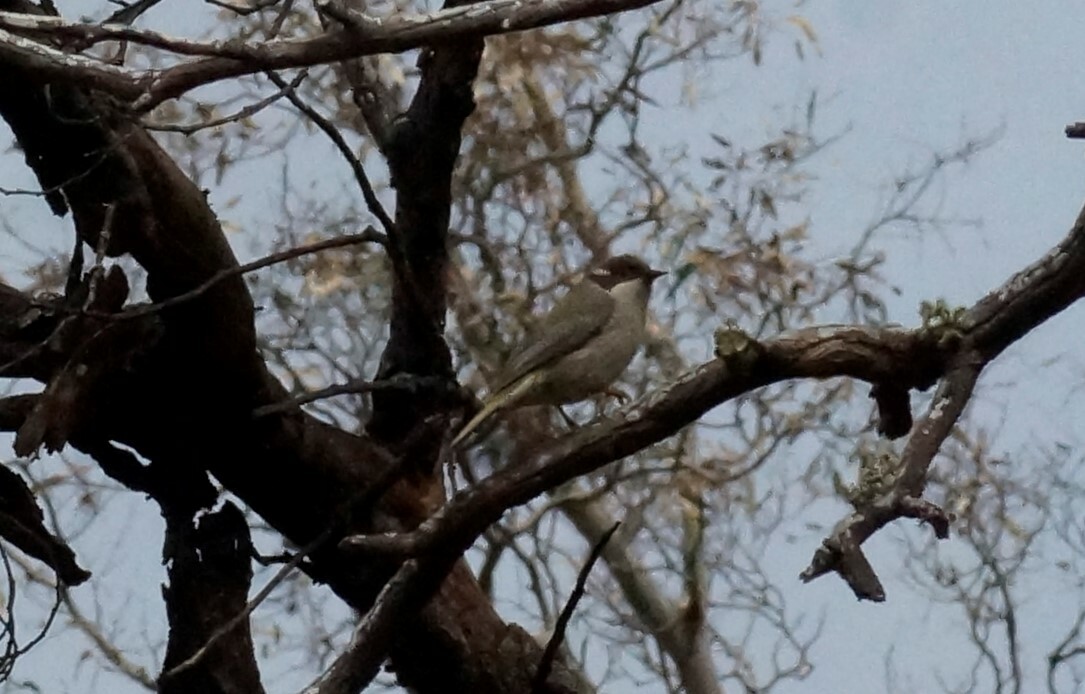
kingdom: Animalia
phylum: Chordata
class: Aves
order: Passeriformes
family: Meliphagidae
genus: Melithreptus
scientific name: Melithreptus brevirostris
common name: Brown-headed honeyeater
